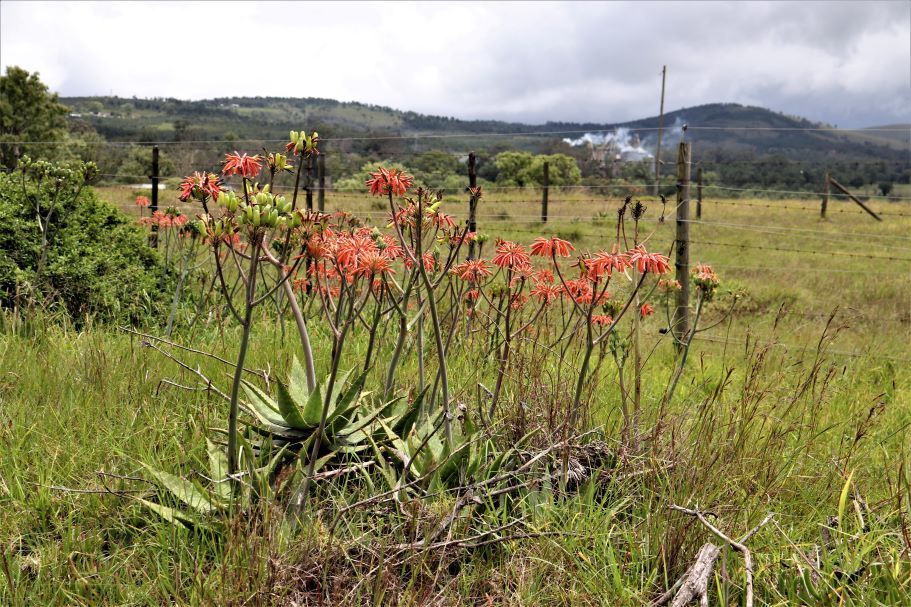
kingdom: Plantae
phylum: Tracheophyta
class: Liliopsida
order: Asparagales
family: Asphodelaceae
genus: Aloe
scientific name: Aloe maculata
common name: Broadleaf aloe
